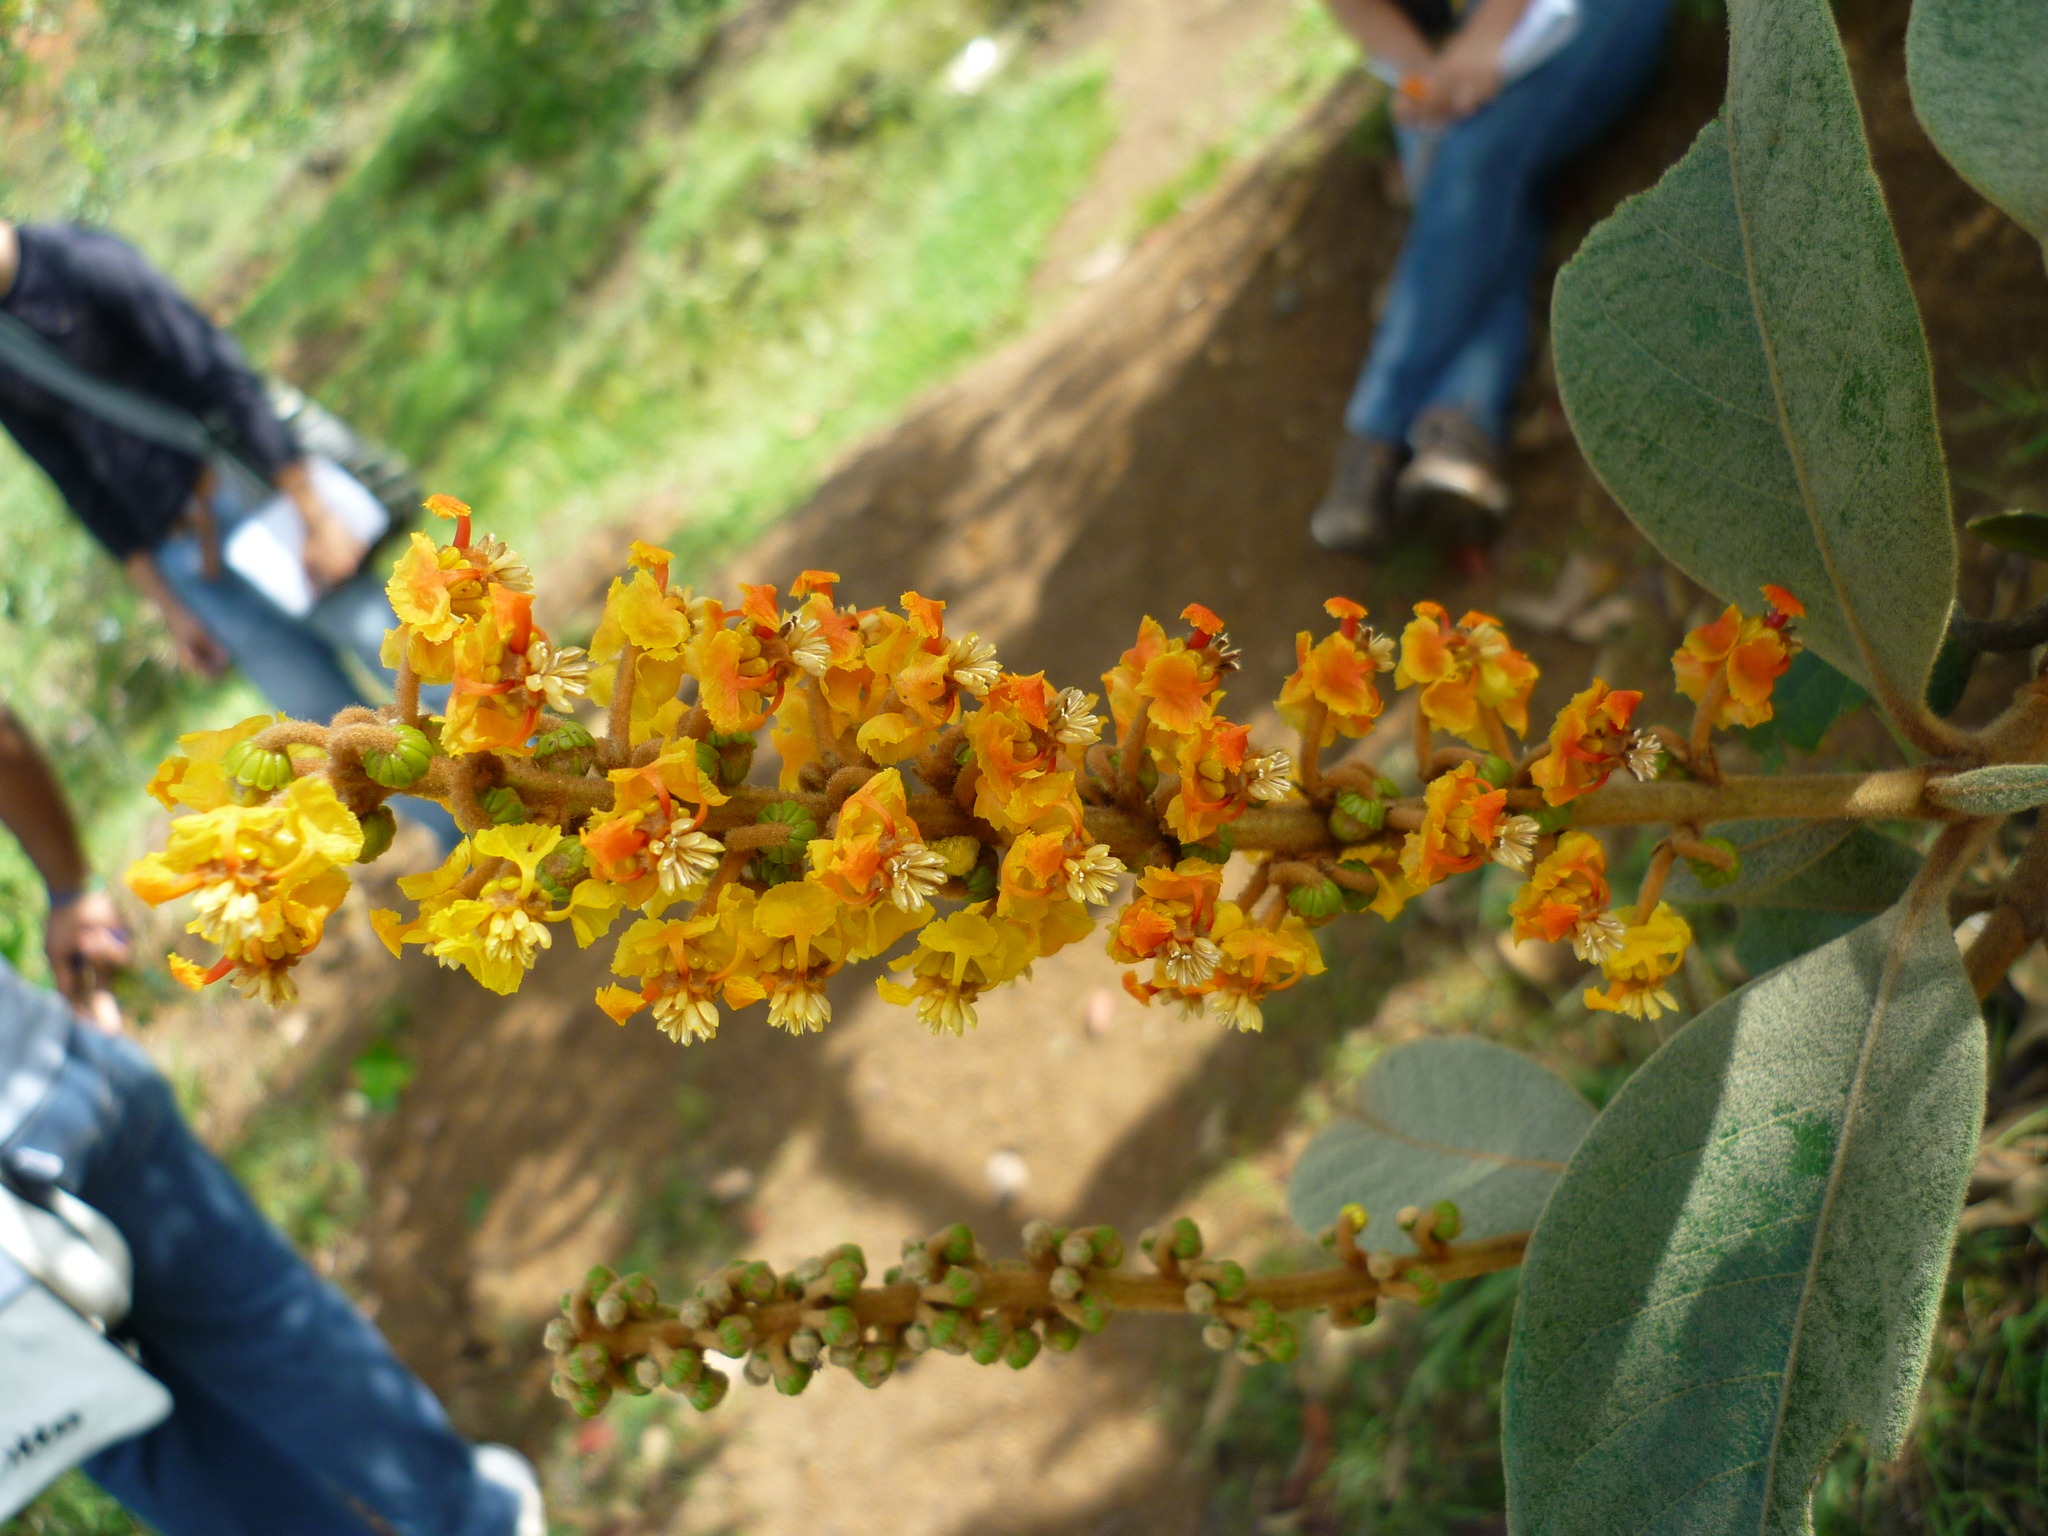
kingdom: Plantae
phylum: Tracheophyta
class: Magnoliopsida
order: Malpighiales
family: Malpighiaceae
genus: Byrsonima
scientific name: Byrsonima crassifolia
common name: Golden spoon
